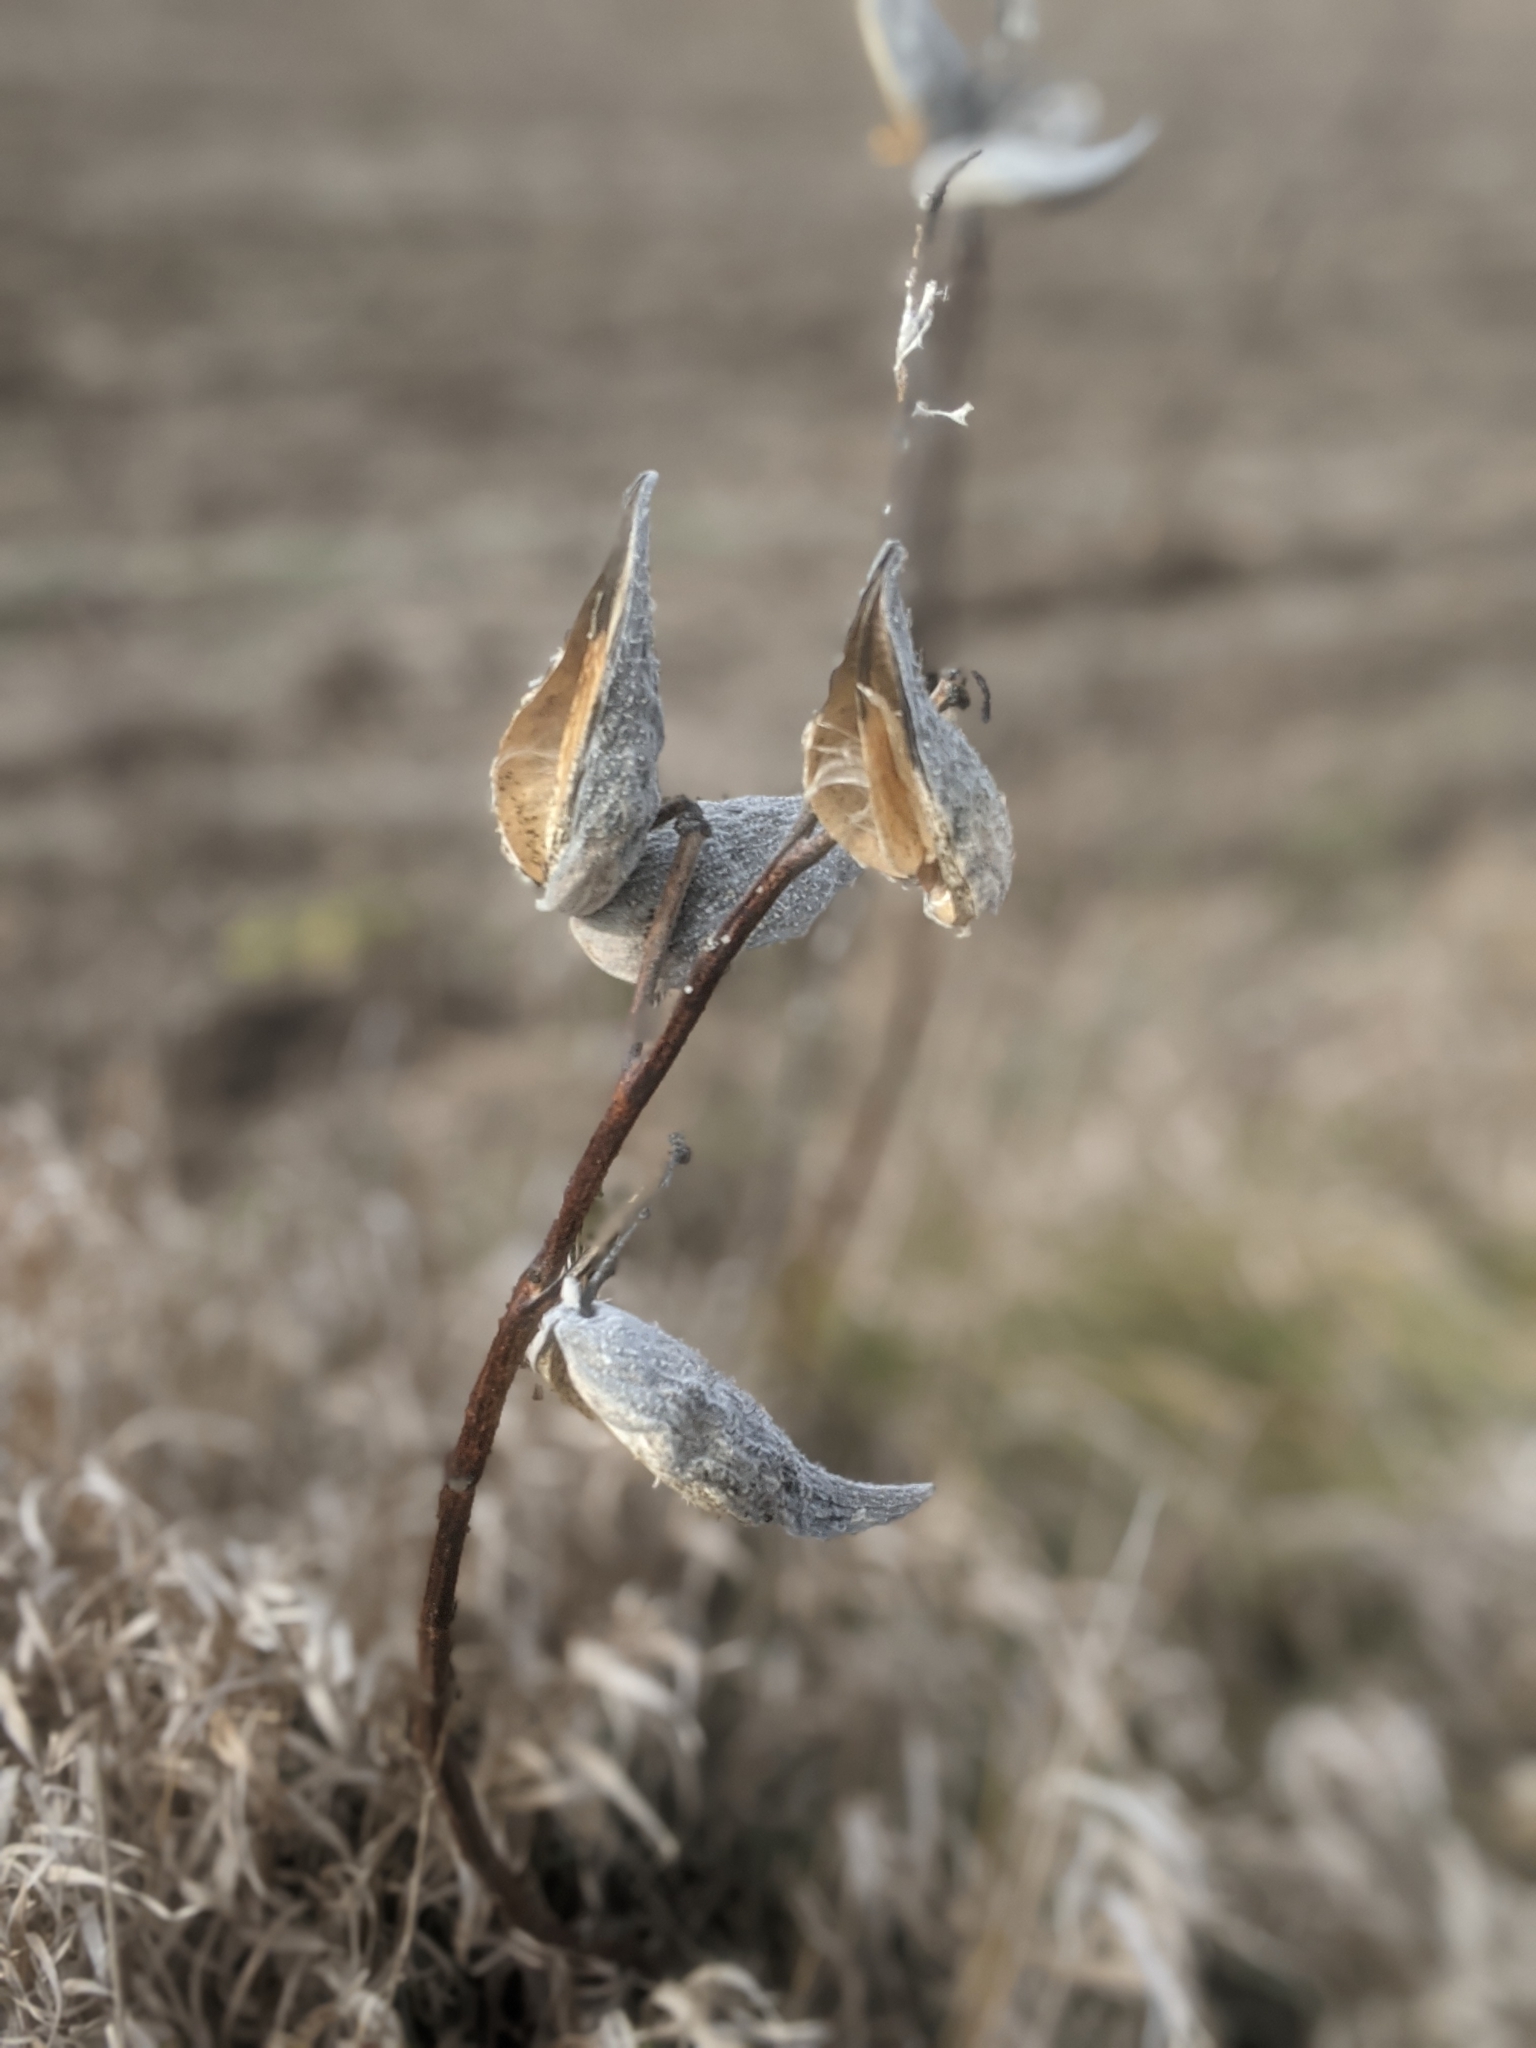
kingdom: Plantae
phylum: Tracheophyta
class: Magnoliopsida
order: Gentianales
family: Apocynaceae
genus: Asclepias
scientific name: Asclepias syriaca
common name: Common milkweed
